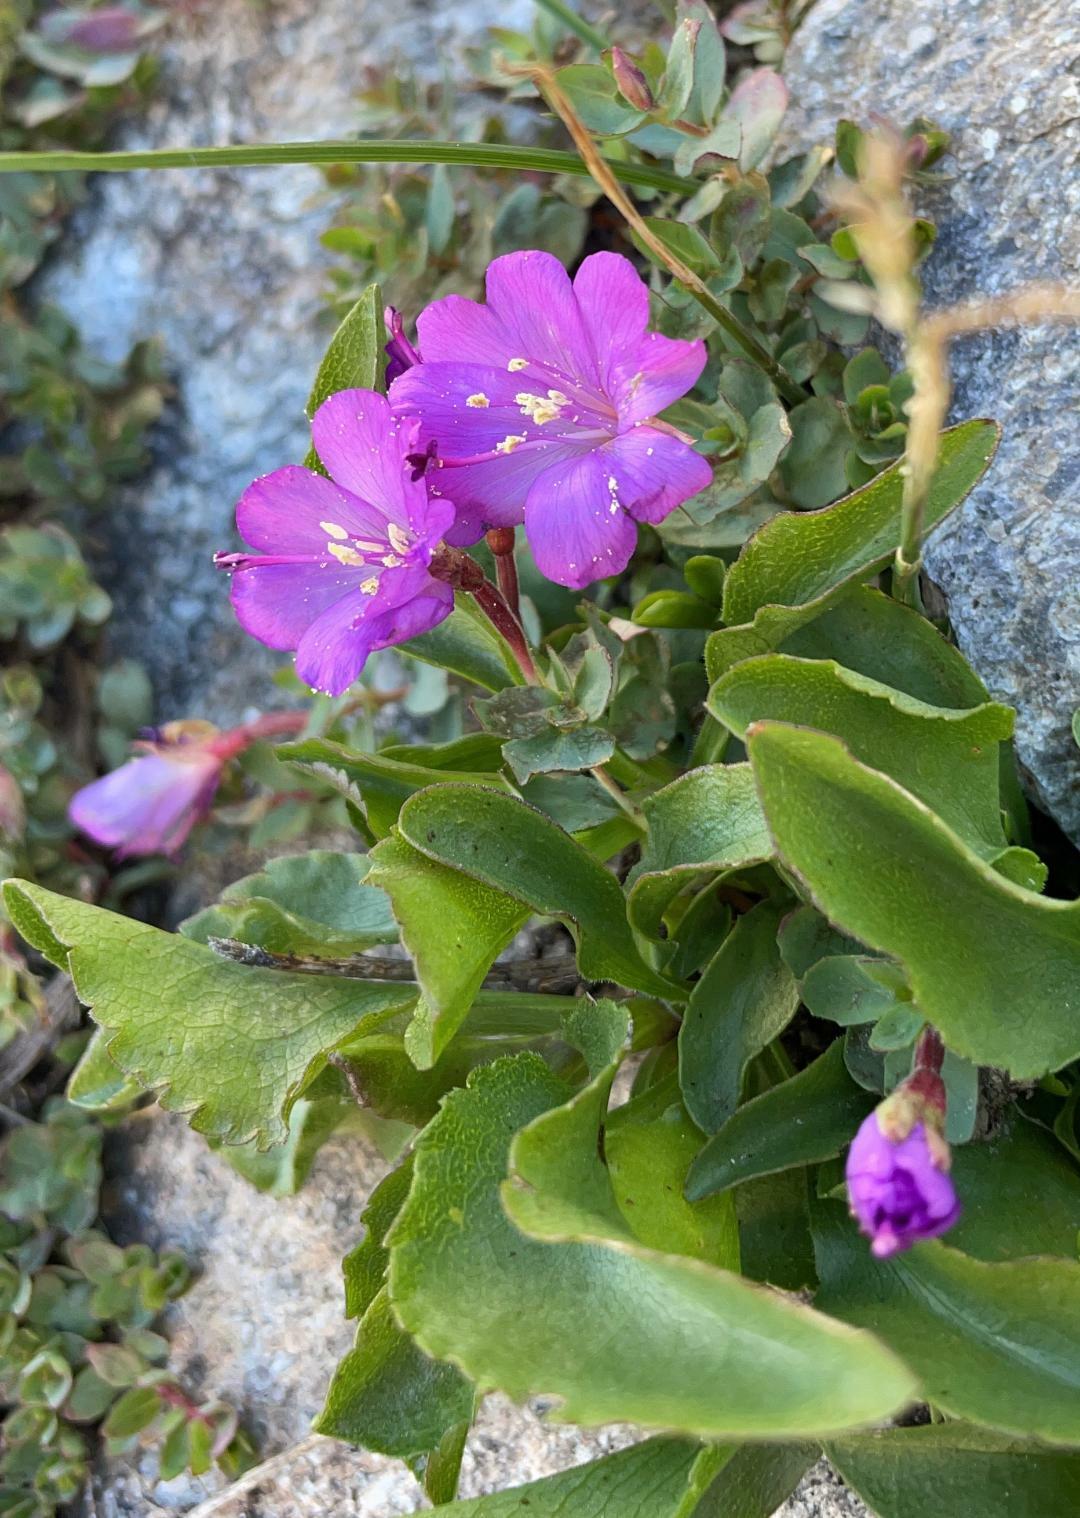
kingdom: Plantae
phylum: Tracheophyta
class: Magnoliopsida
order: Myrtales
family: Onagraceae
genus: Epilobium
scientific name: Epilobium obcordatum
